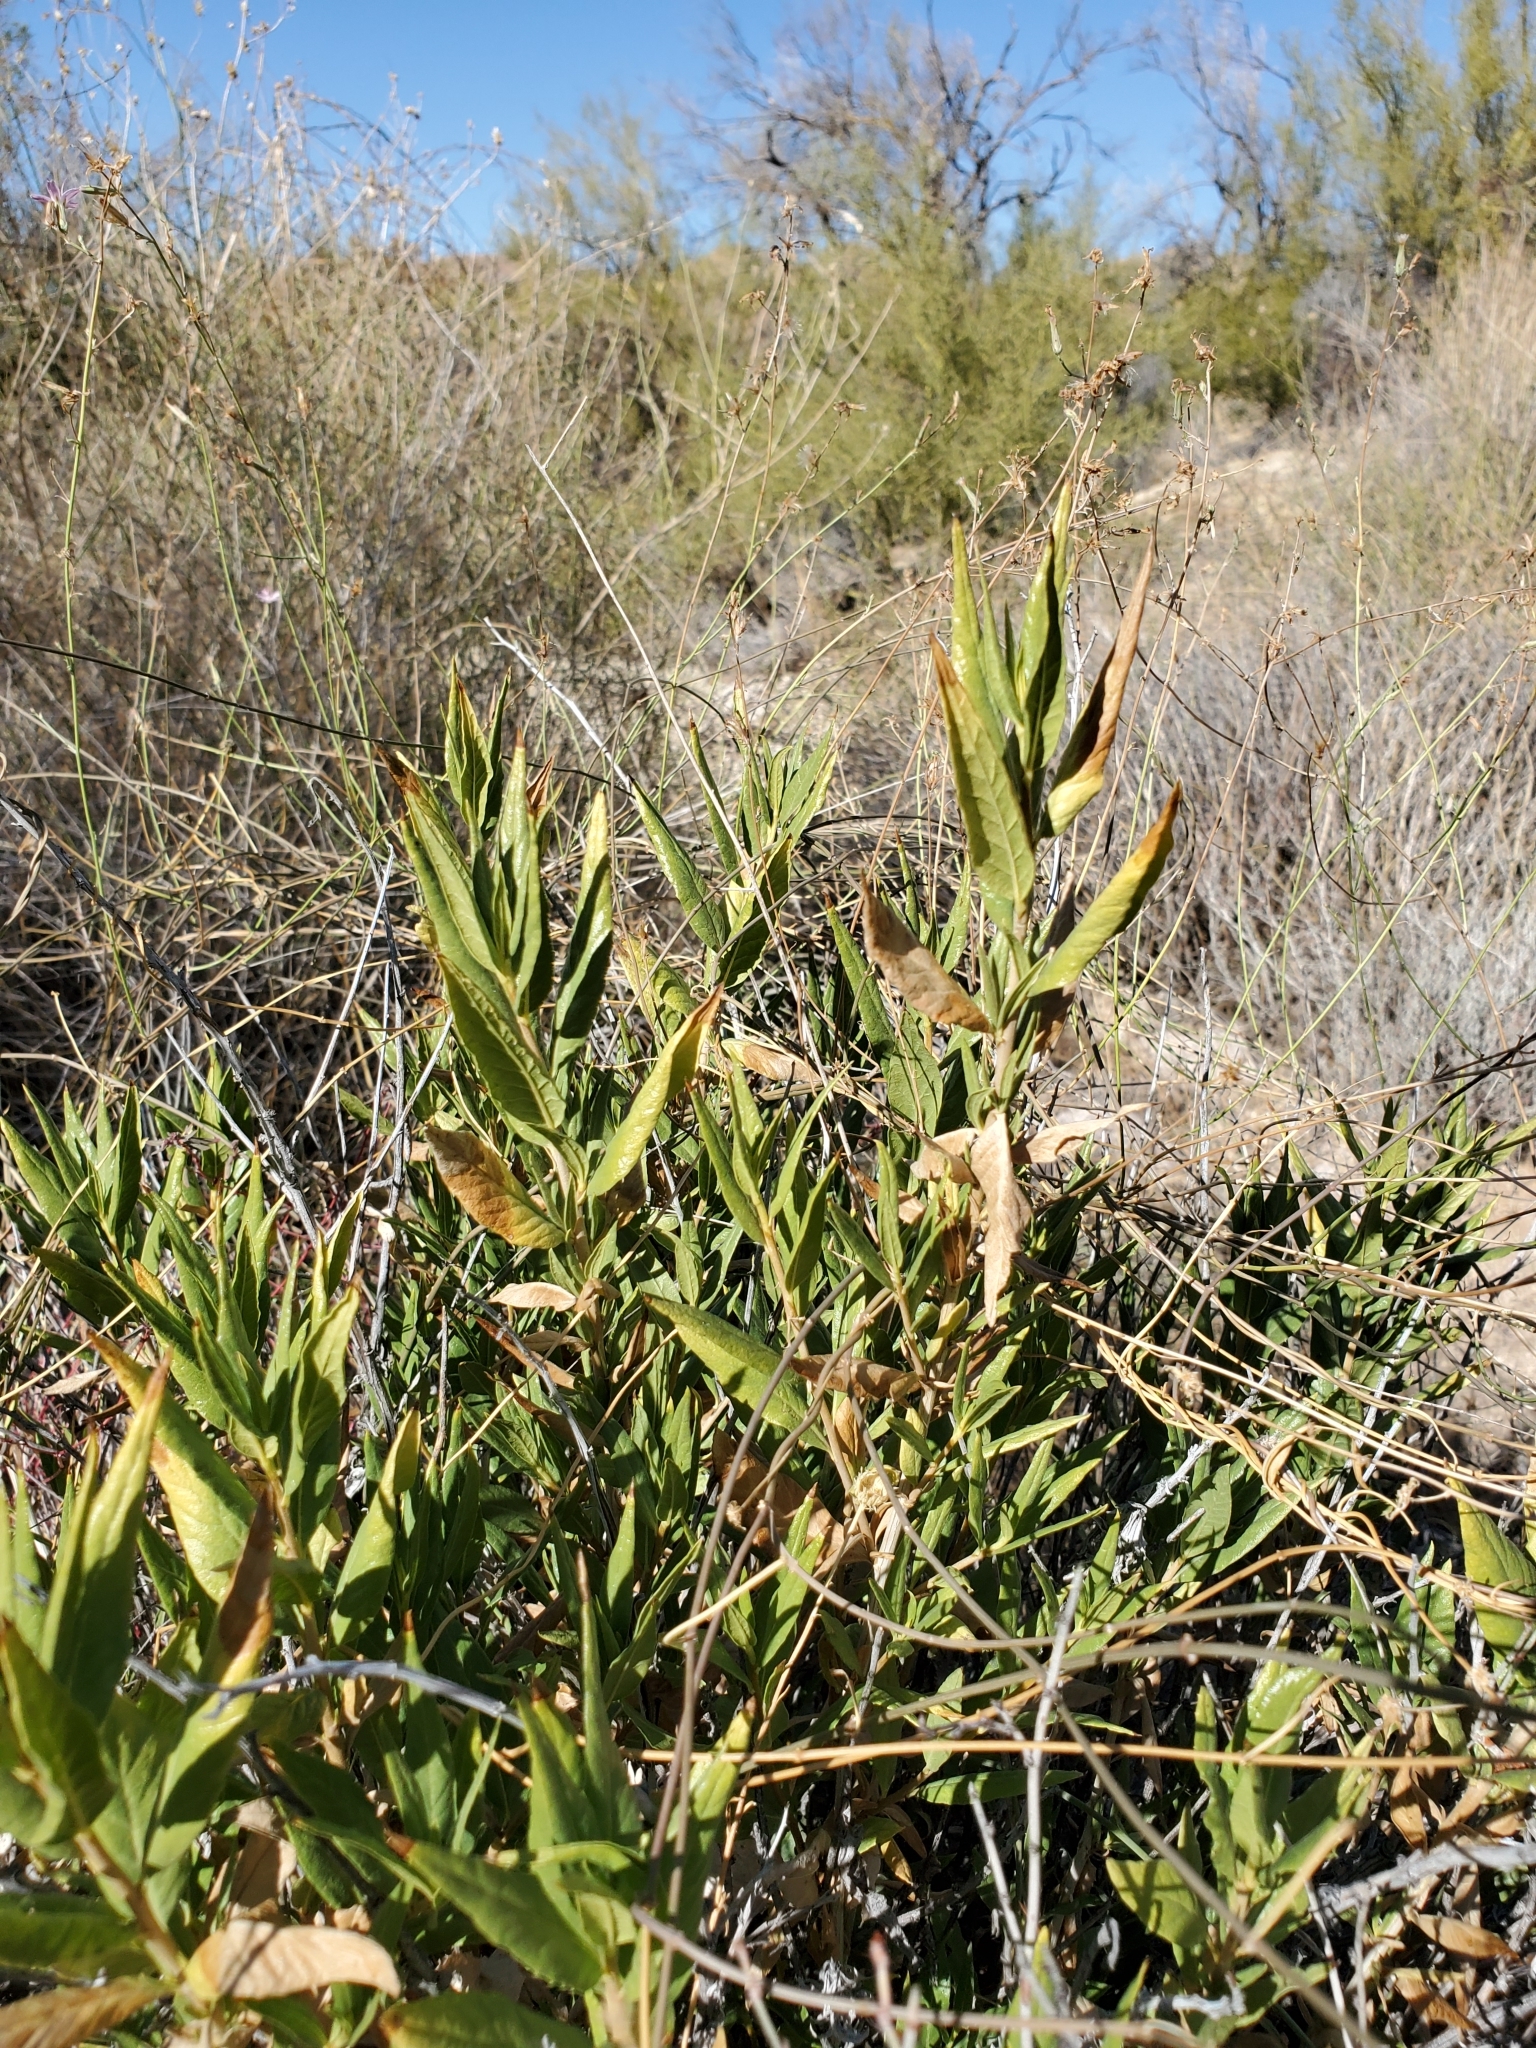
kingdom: Plantae
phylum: Tracheophyta
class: Magnoliopsida
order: Asterales
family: Asteraceae
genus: Trixis
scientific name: Trixis californica
